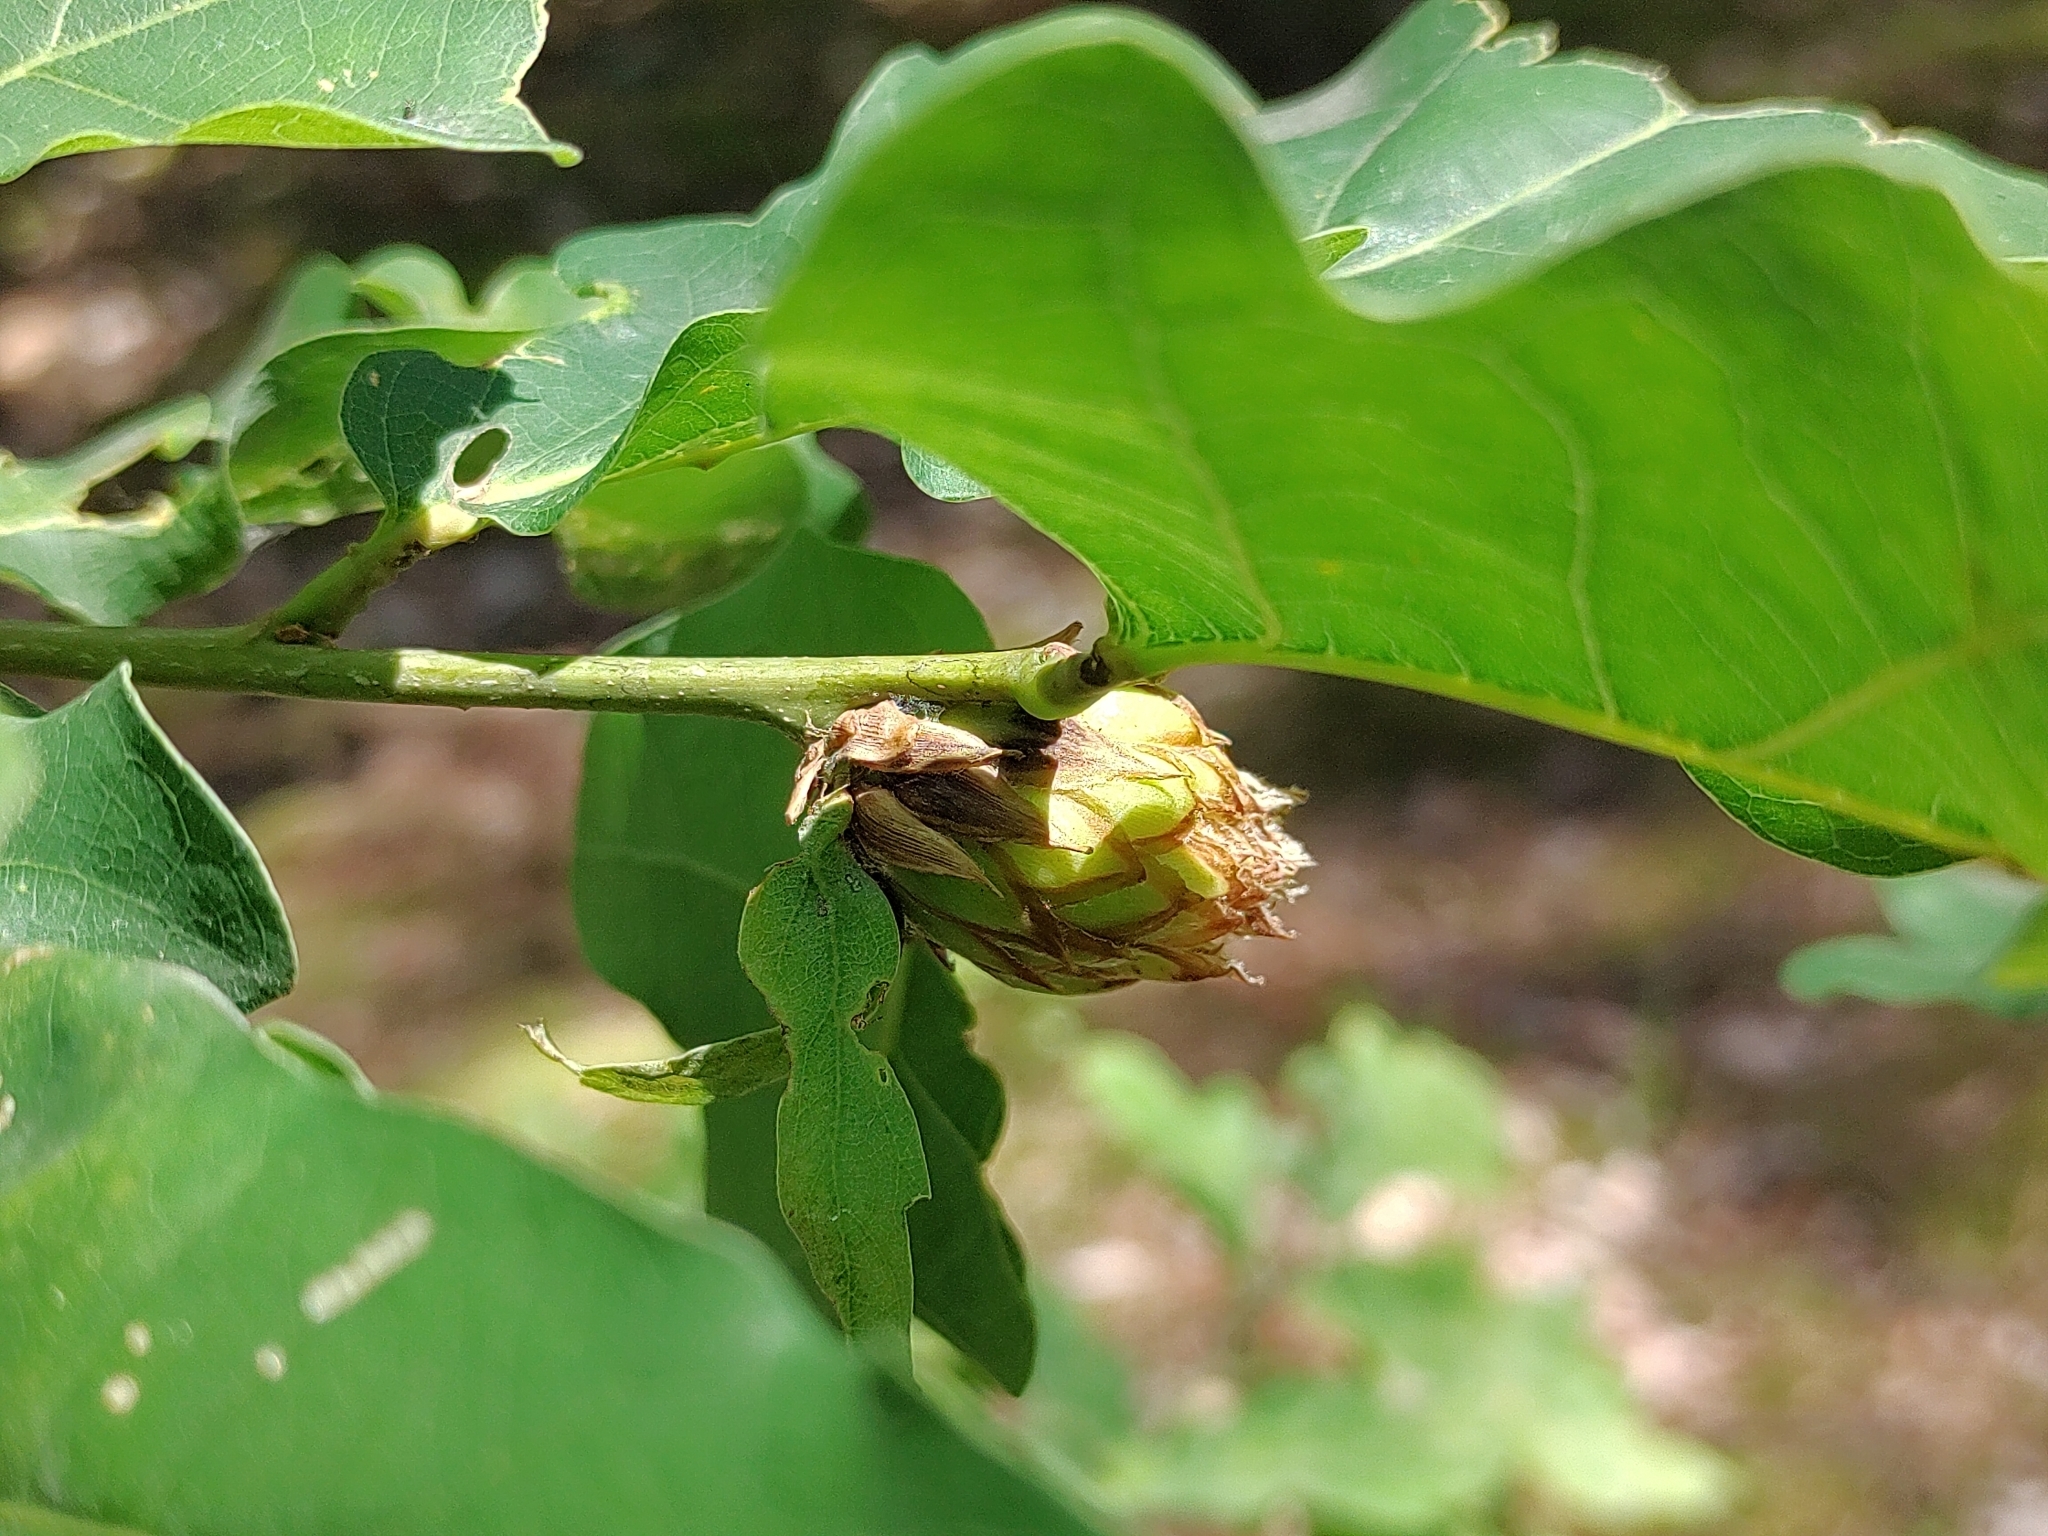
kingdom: Animalia
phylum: Arthropoda
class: Insecta
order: Hymenoptera
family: Cynipidae
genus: Andricus
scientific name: Andricus foecundatrix
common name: Artichoke gall
